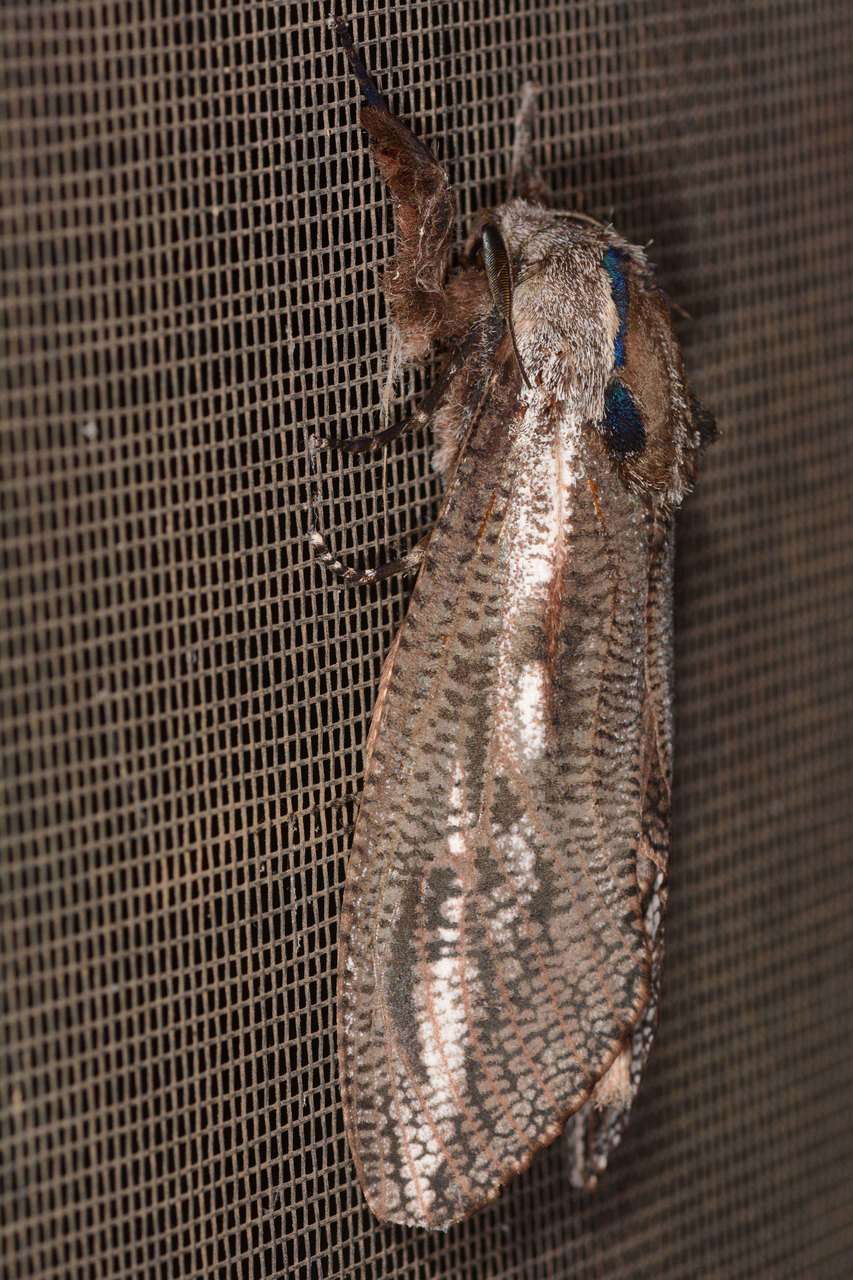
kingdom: Animalia
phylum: Arthropoda
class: Insecta
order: Lepidoptera
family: Cossidae
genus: Endoxyla
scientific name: Endoxyla encalypti
